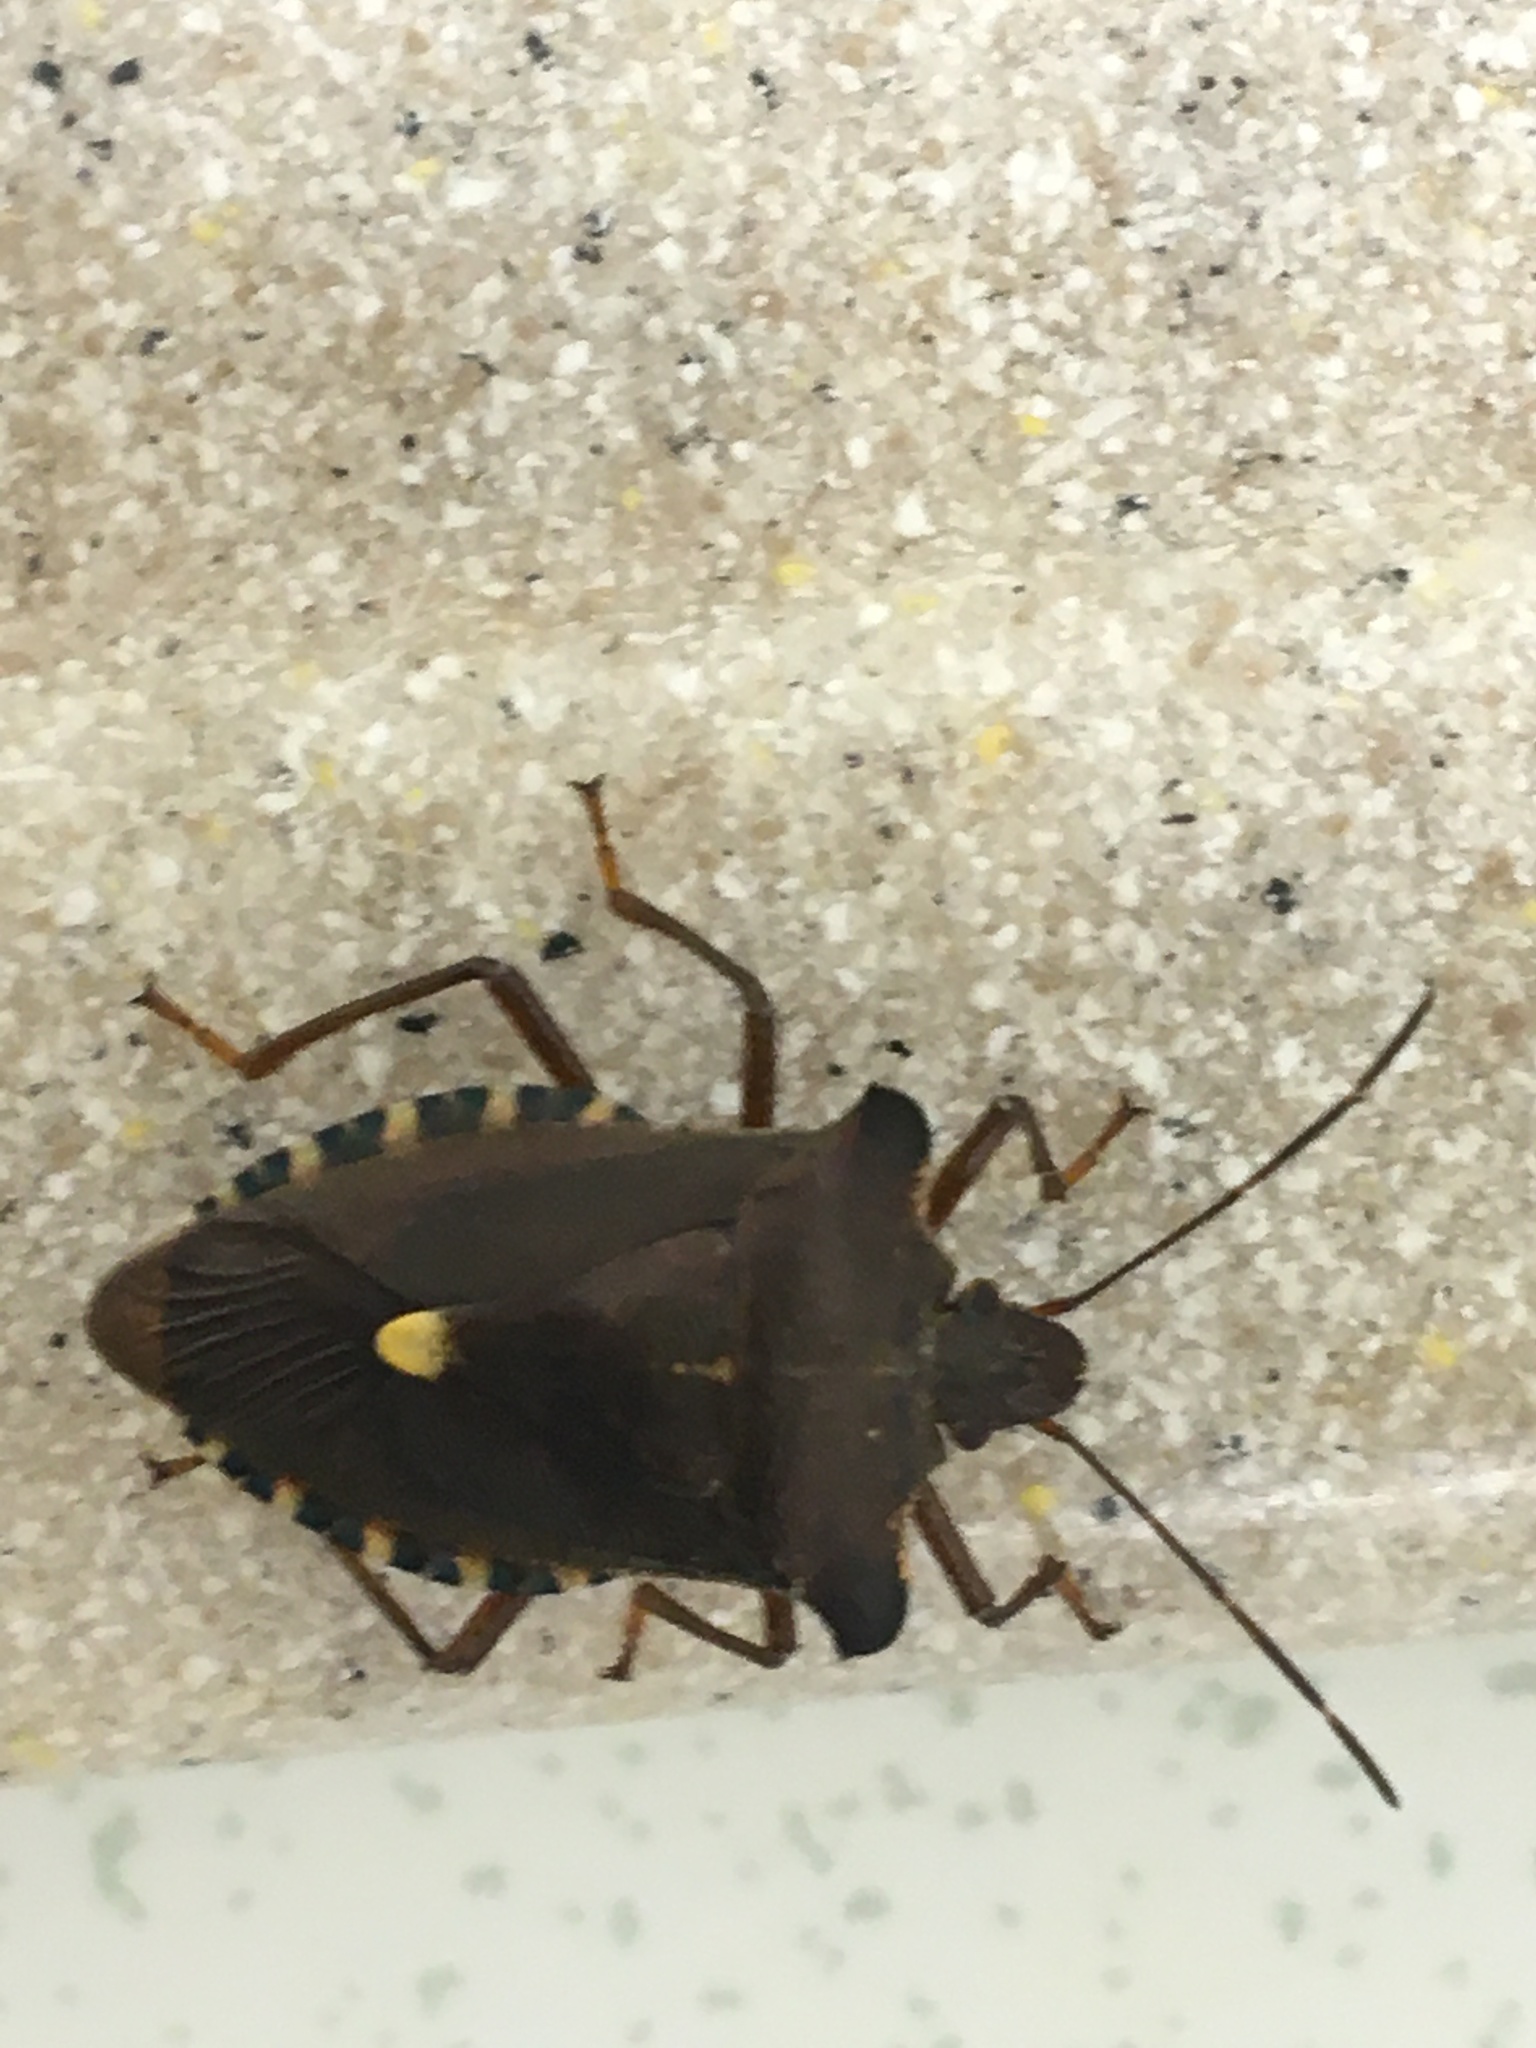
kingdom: Animalia
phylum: Arthropoda
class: Insecta
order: Hemiptera
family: Pentatomidae
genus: Pentatoma
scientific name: Pentatoma rufipes
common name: Forest bug
